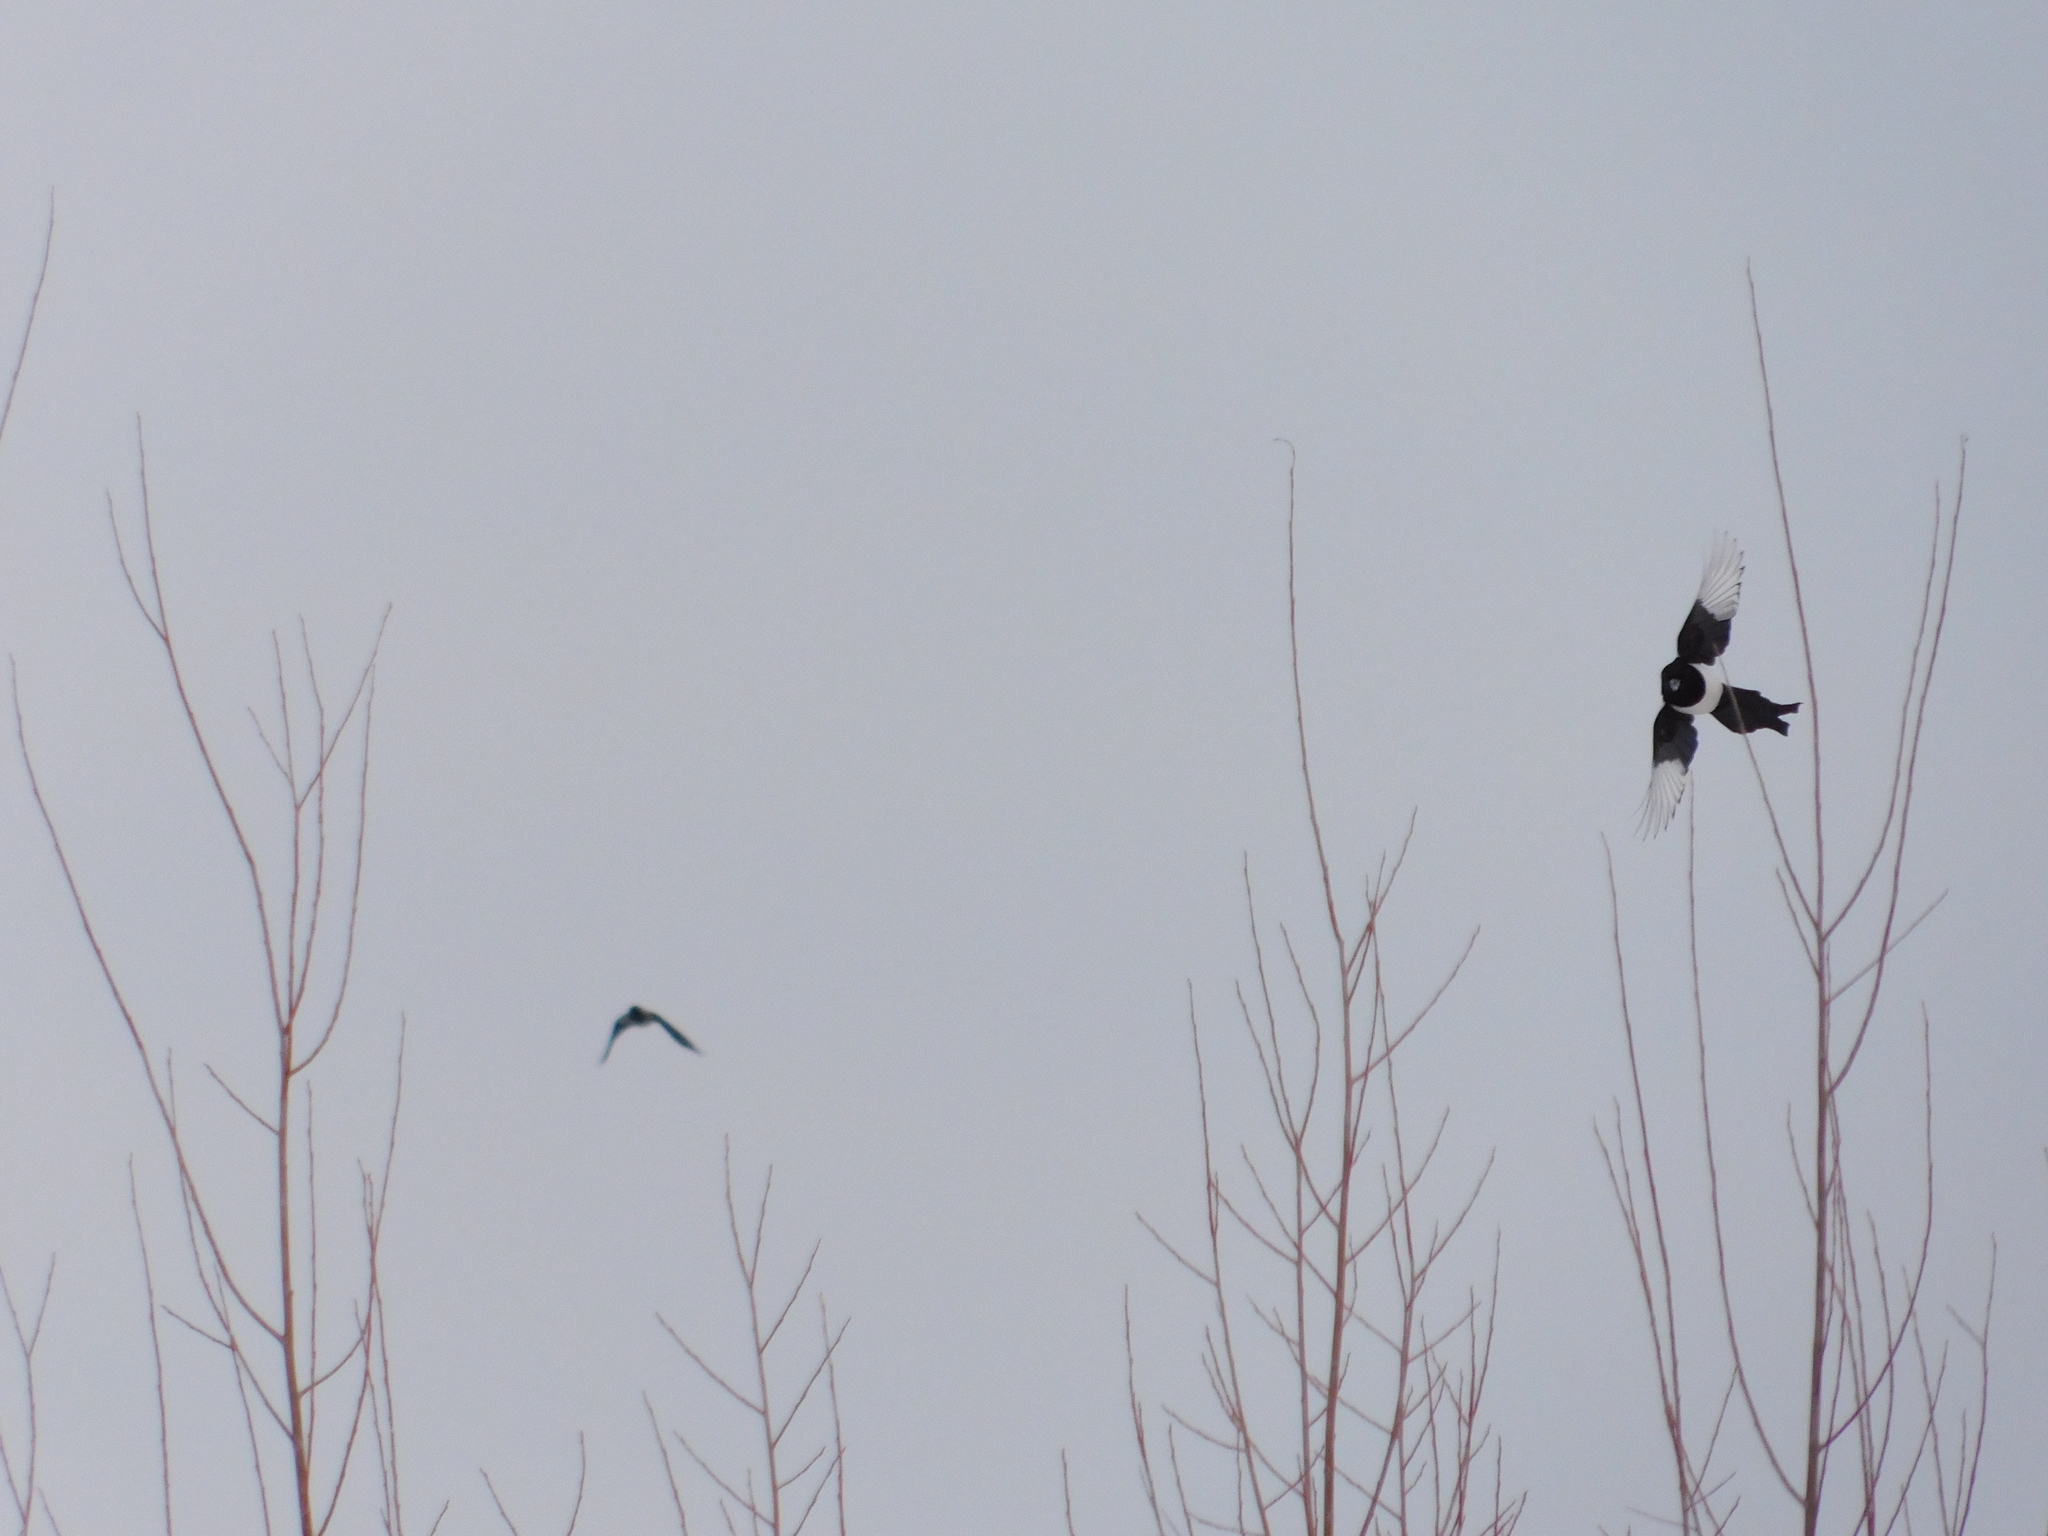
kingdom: Animalia
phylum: Chordata
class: Aves
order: Passeriformes
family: Corvidae
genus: Pica
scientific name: Pica pica
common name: Eurasian magpie
